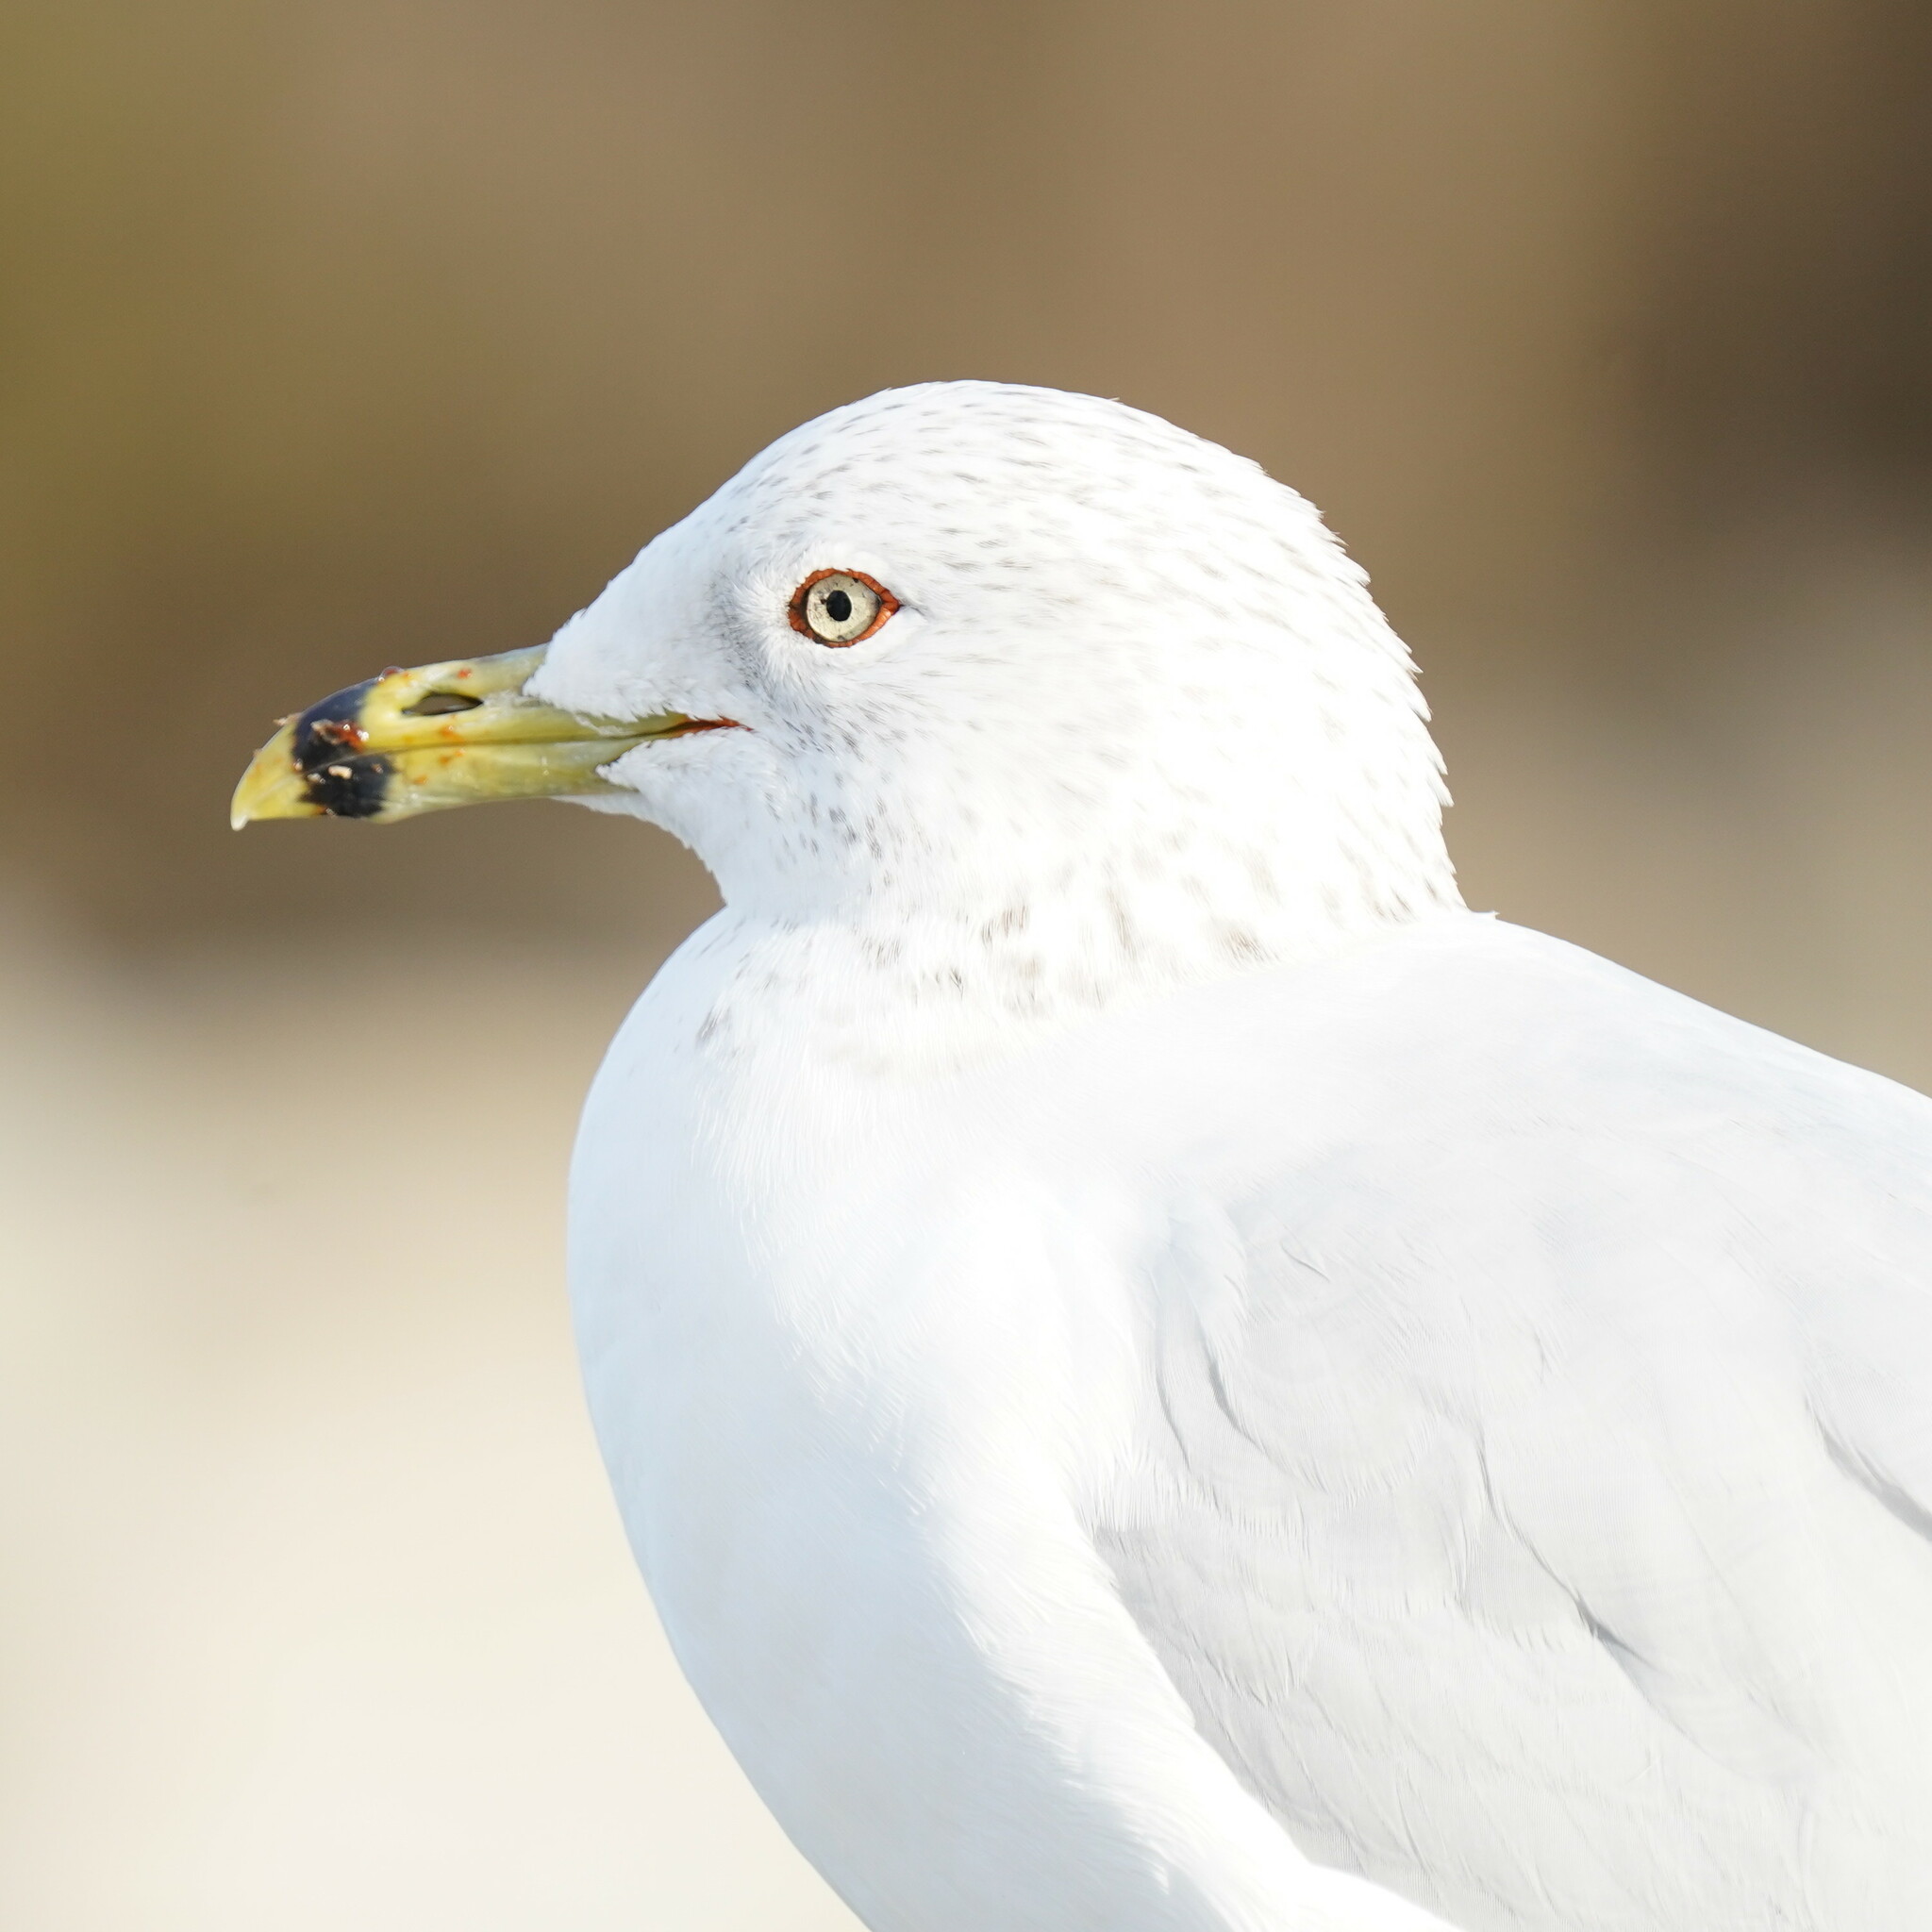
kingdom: Animalia
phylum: Chordata
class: Aves
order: Charadriiformes
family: Laridae
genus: Larus
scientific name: Larus delawarensis
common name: Ring-billed gull
